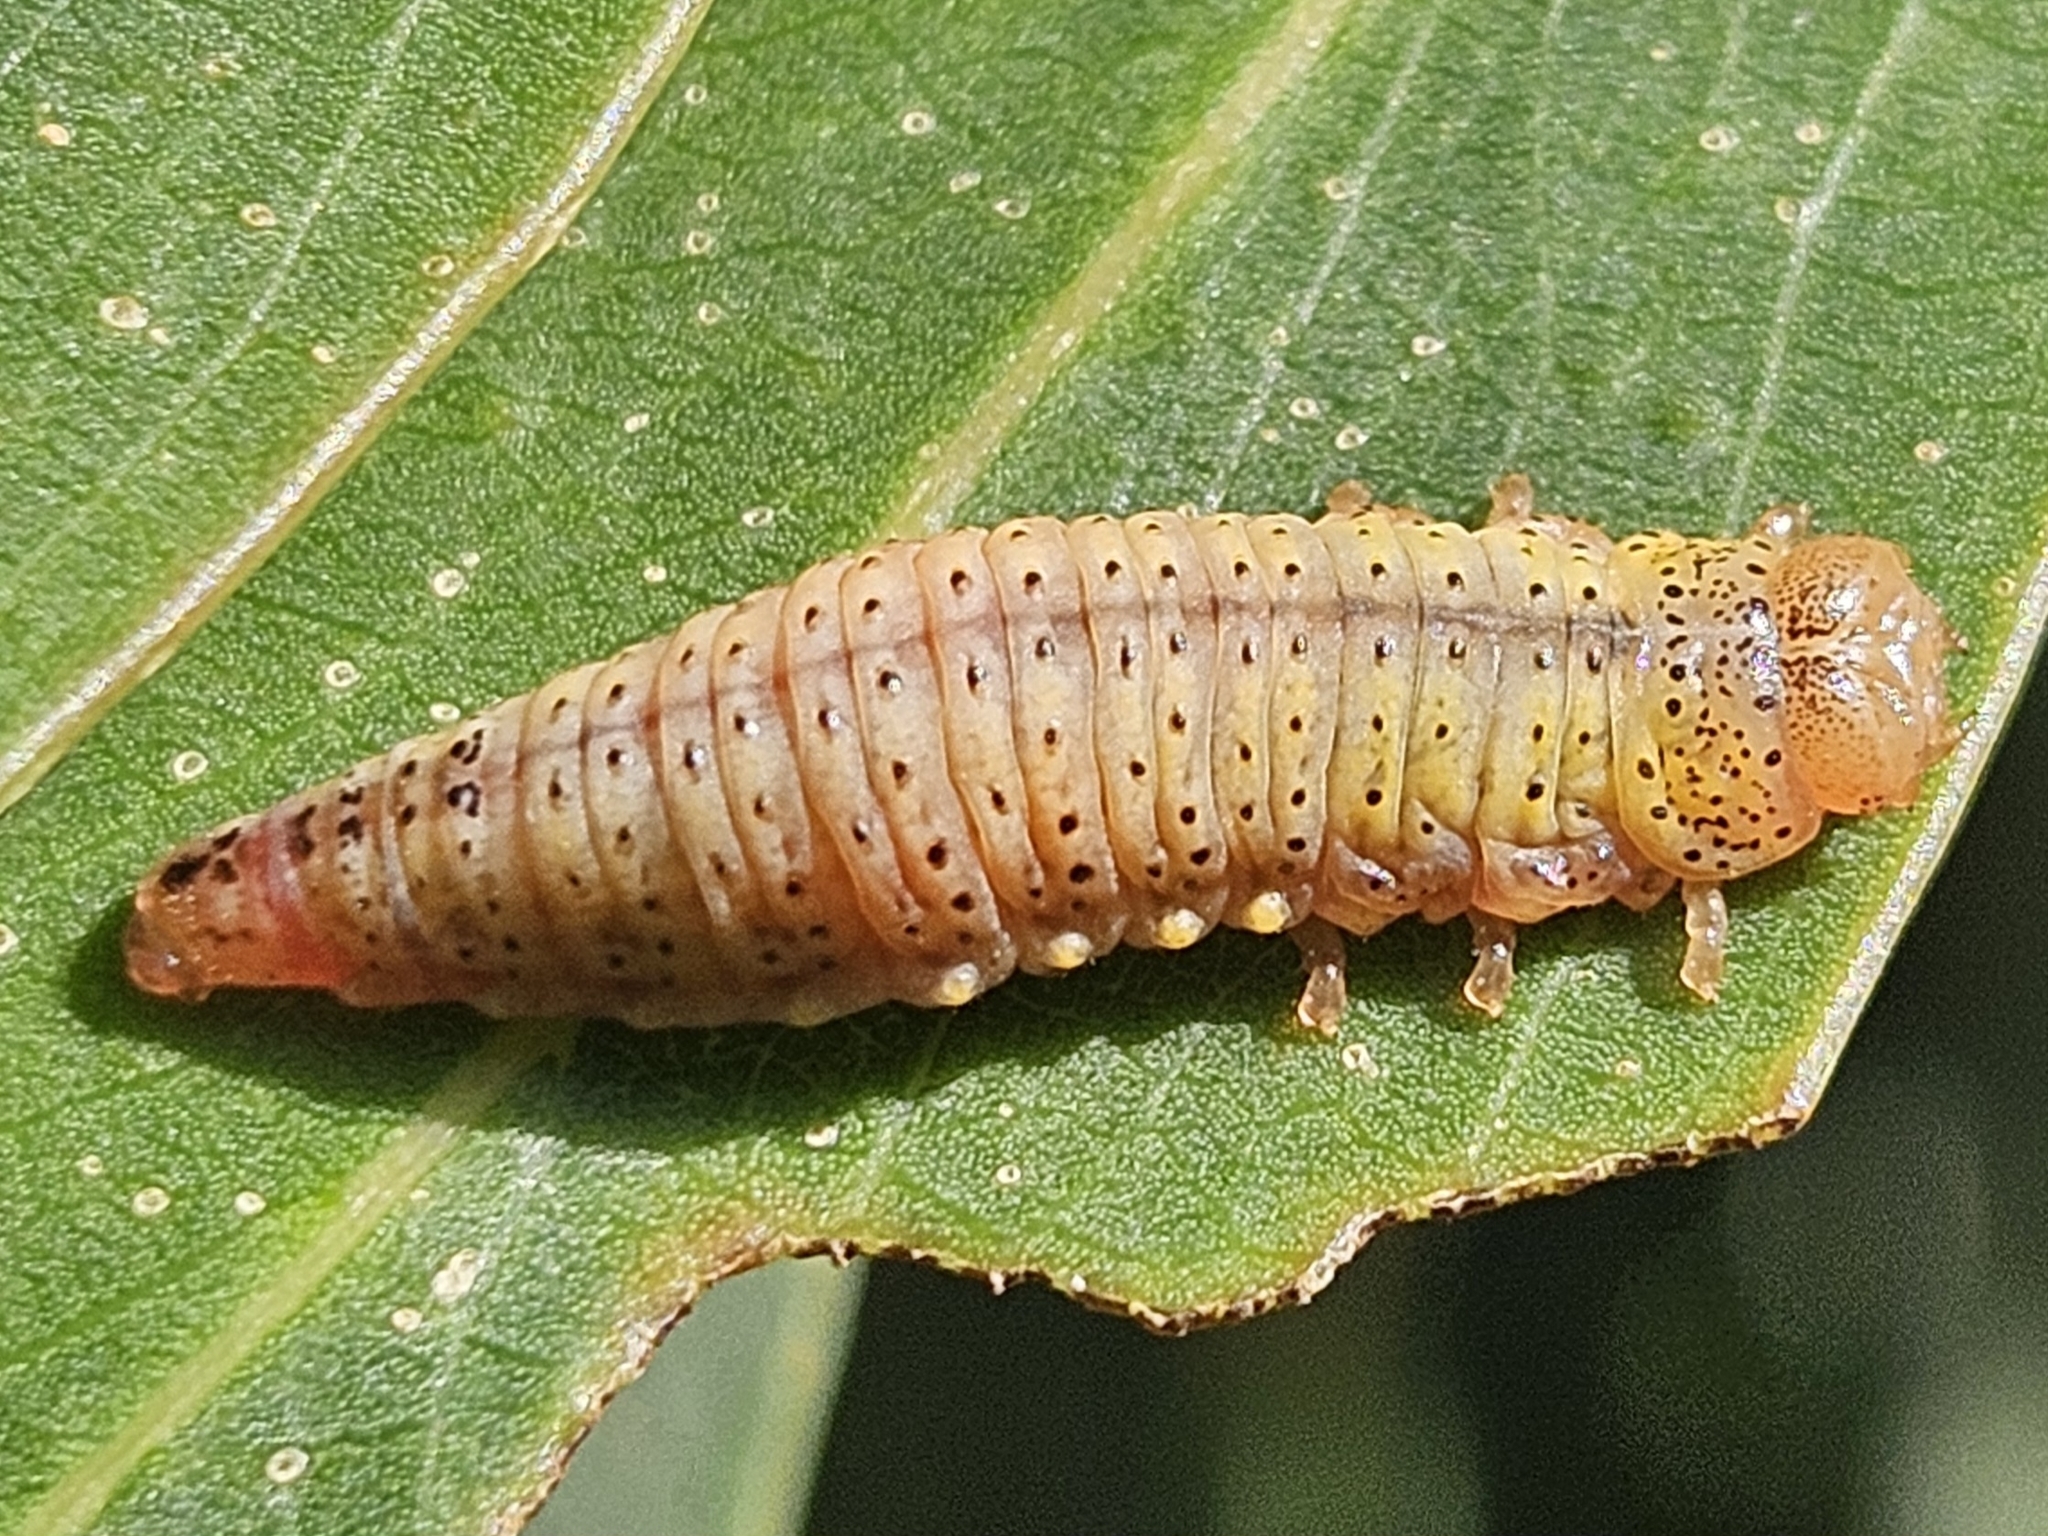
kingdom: Animalia
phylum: Arthropoda
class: Insecta
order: Coleoptera
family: Chrysomelidae
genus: Paropsis
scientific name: Paropsis charybdis
